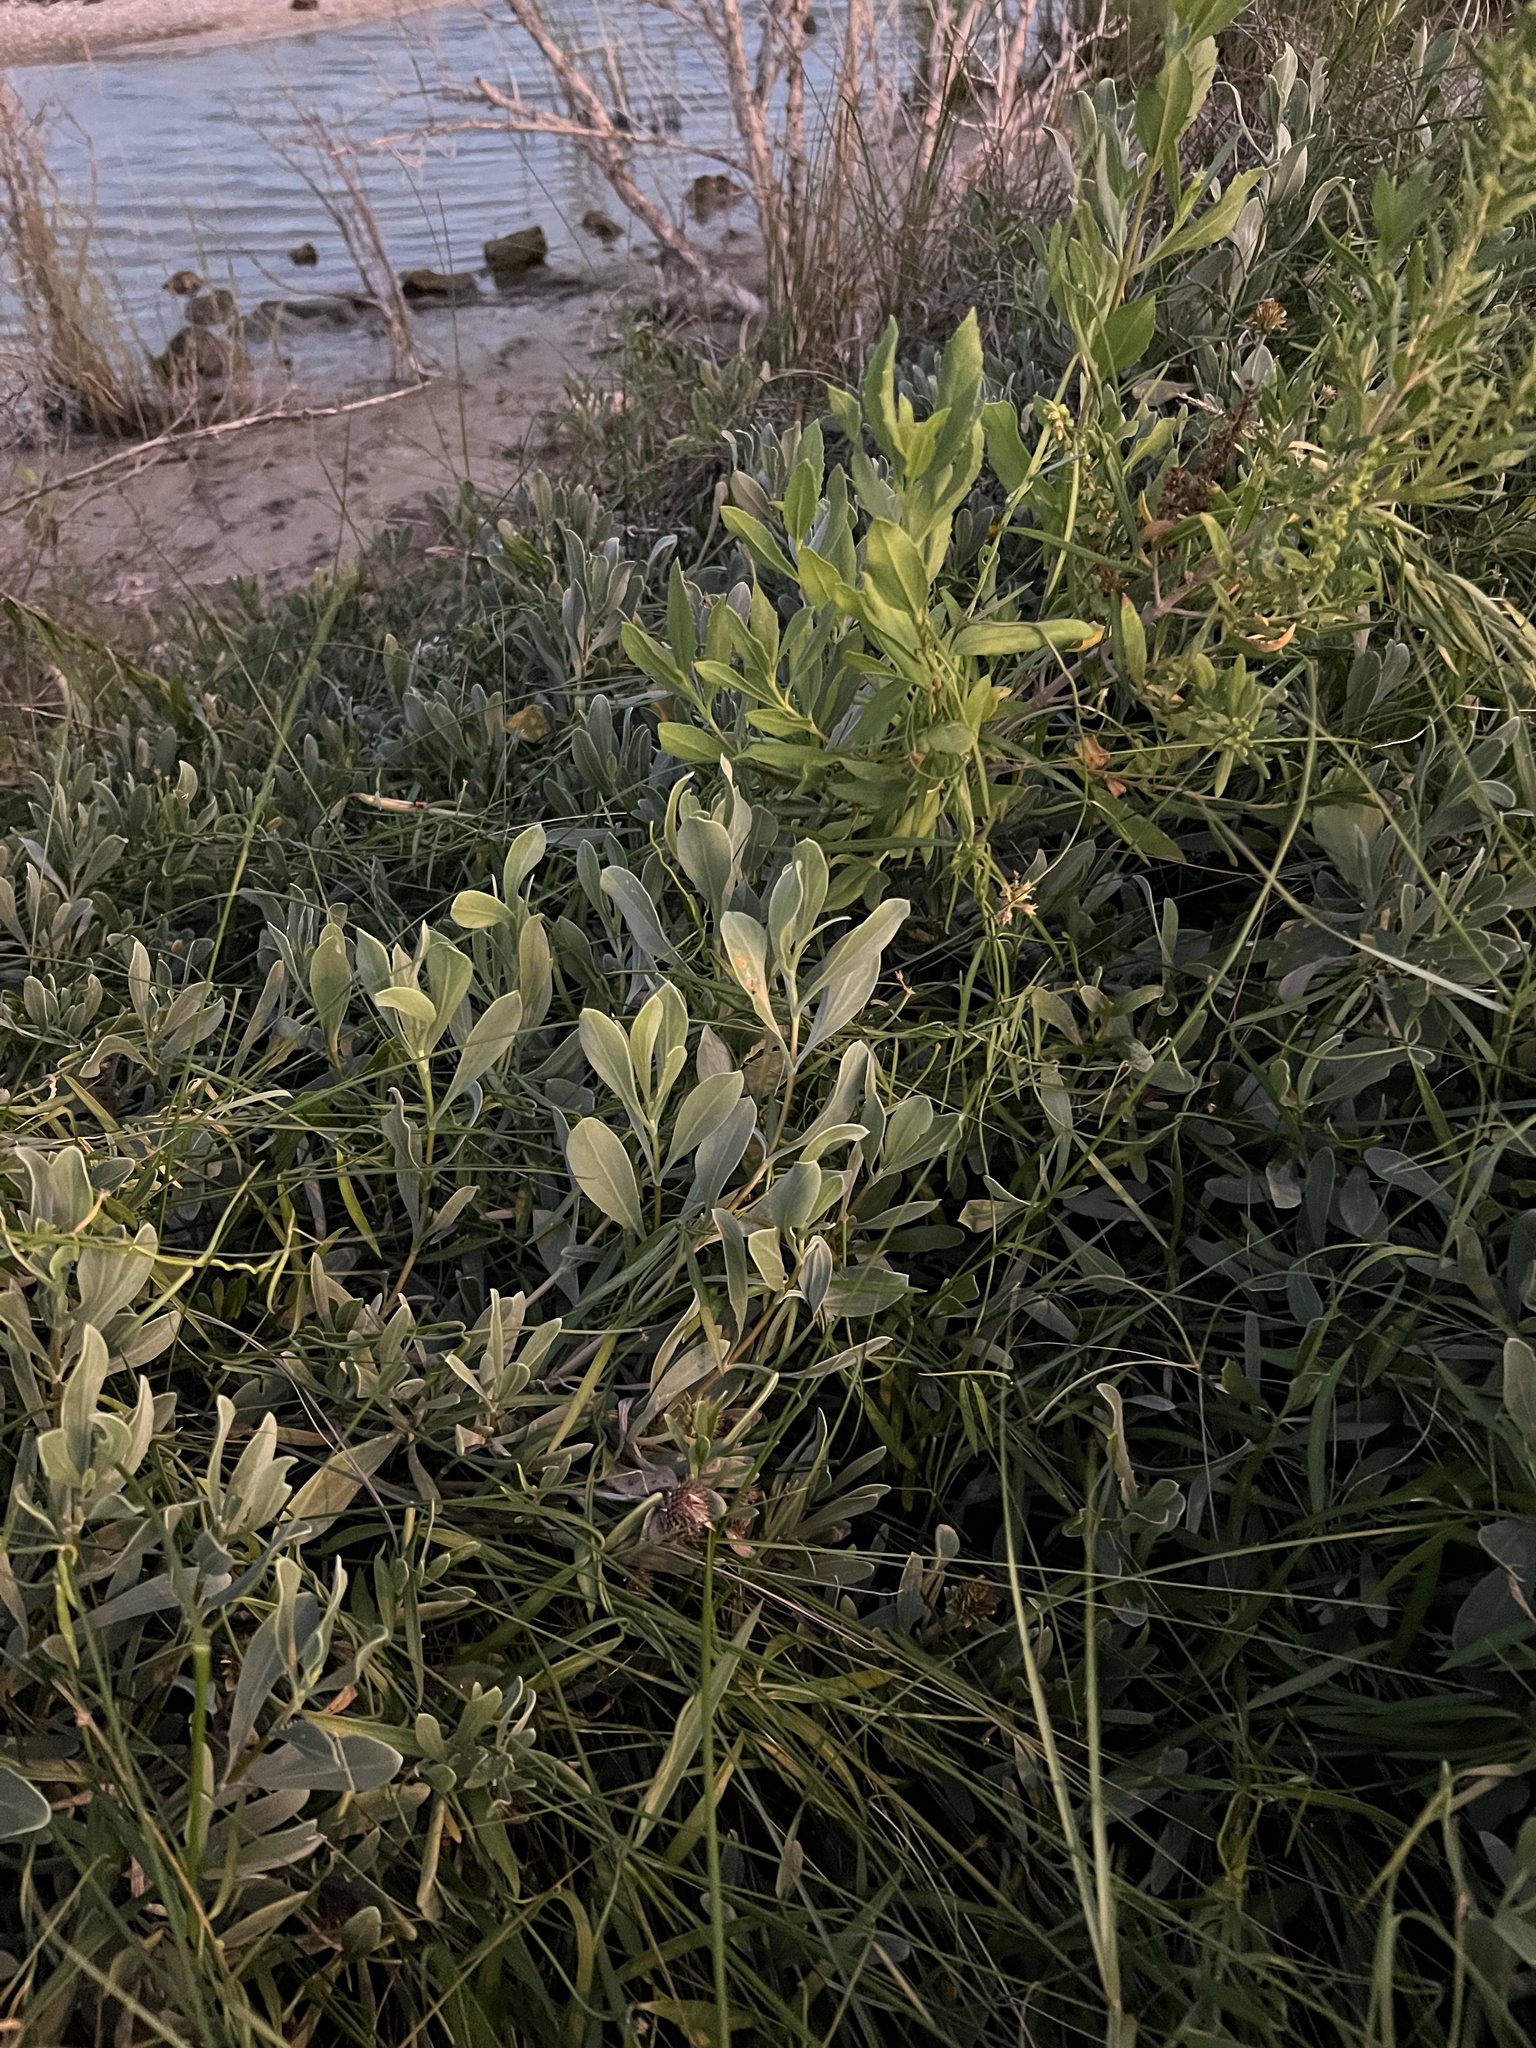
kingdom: Plantae
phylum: Tracheophyta
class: Magnoliopsida
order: Asterales
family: Asteraceae
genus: Borrichia
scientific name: Borrichia frutescens
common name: Sea oxeye
